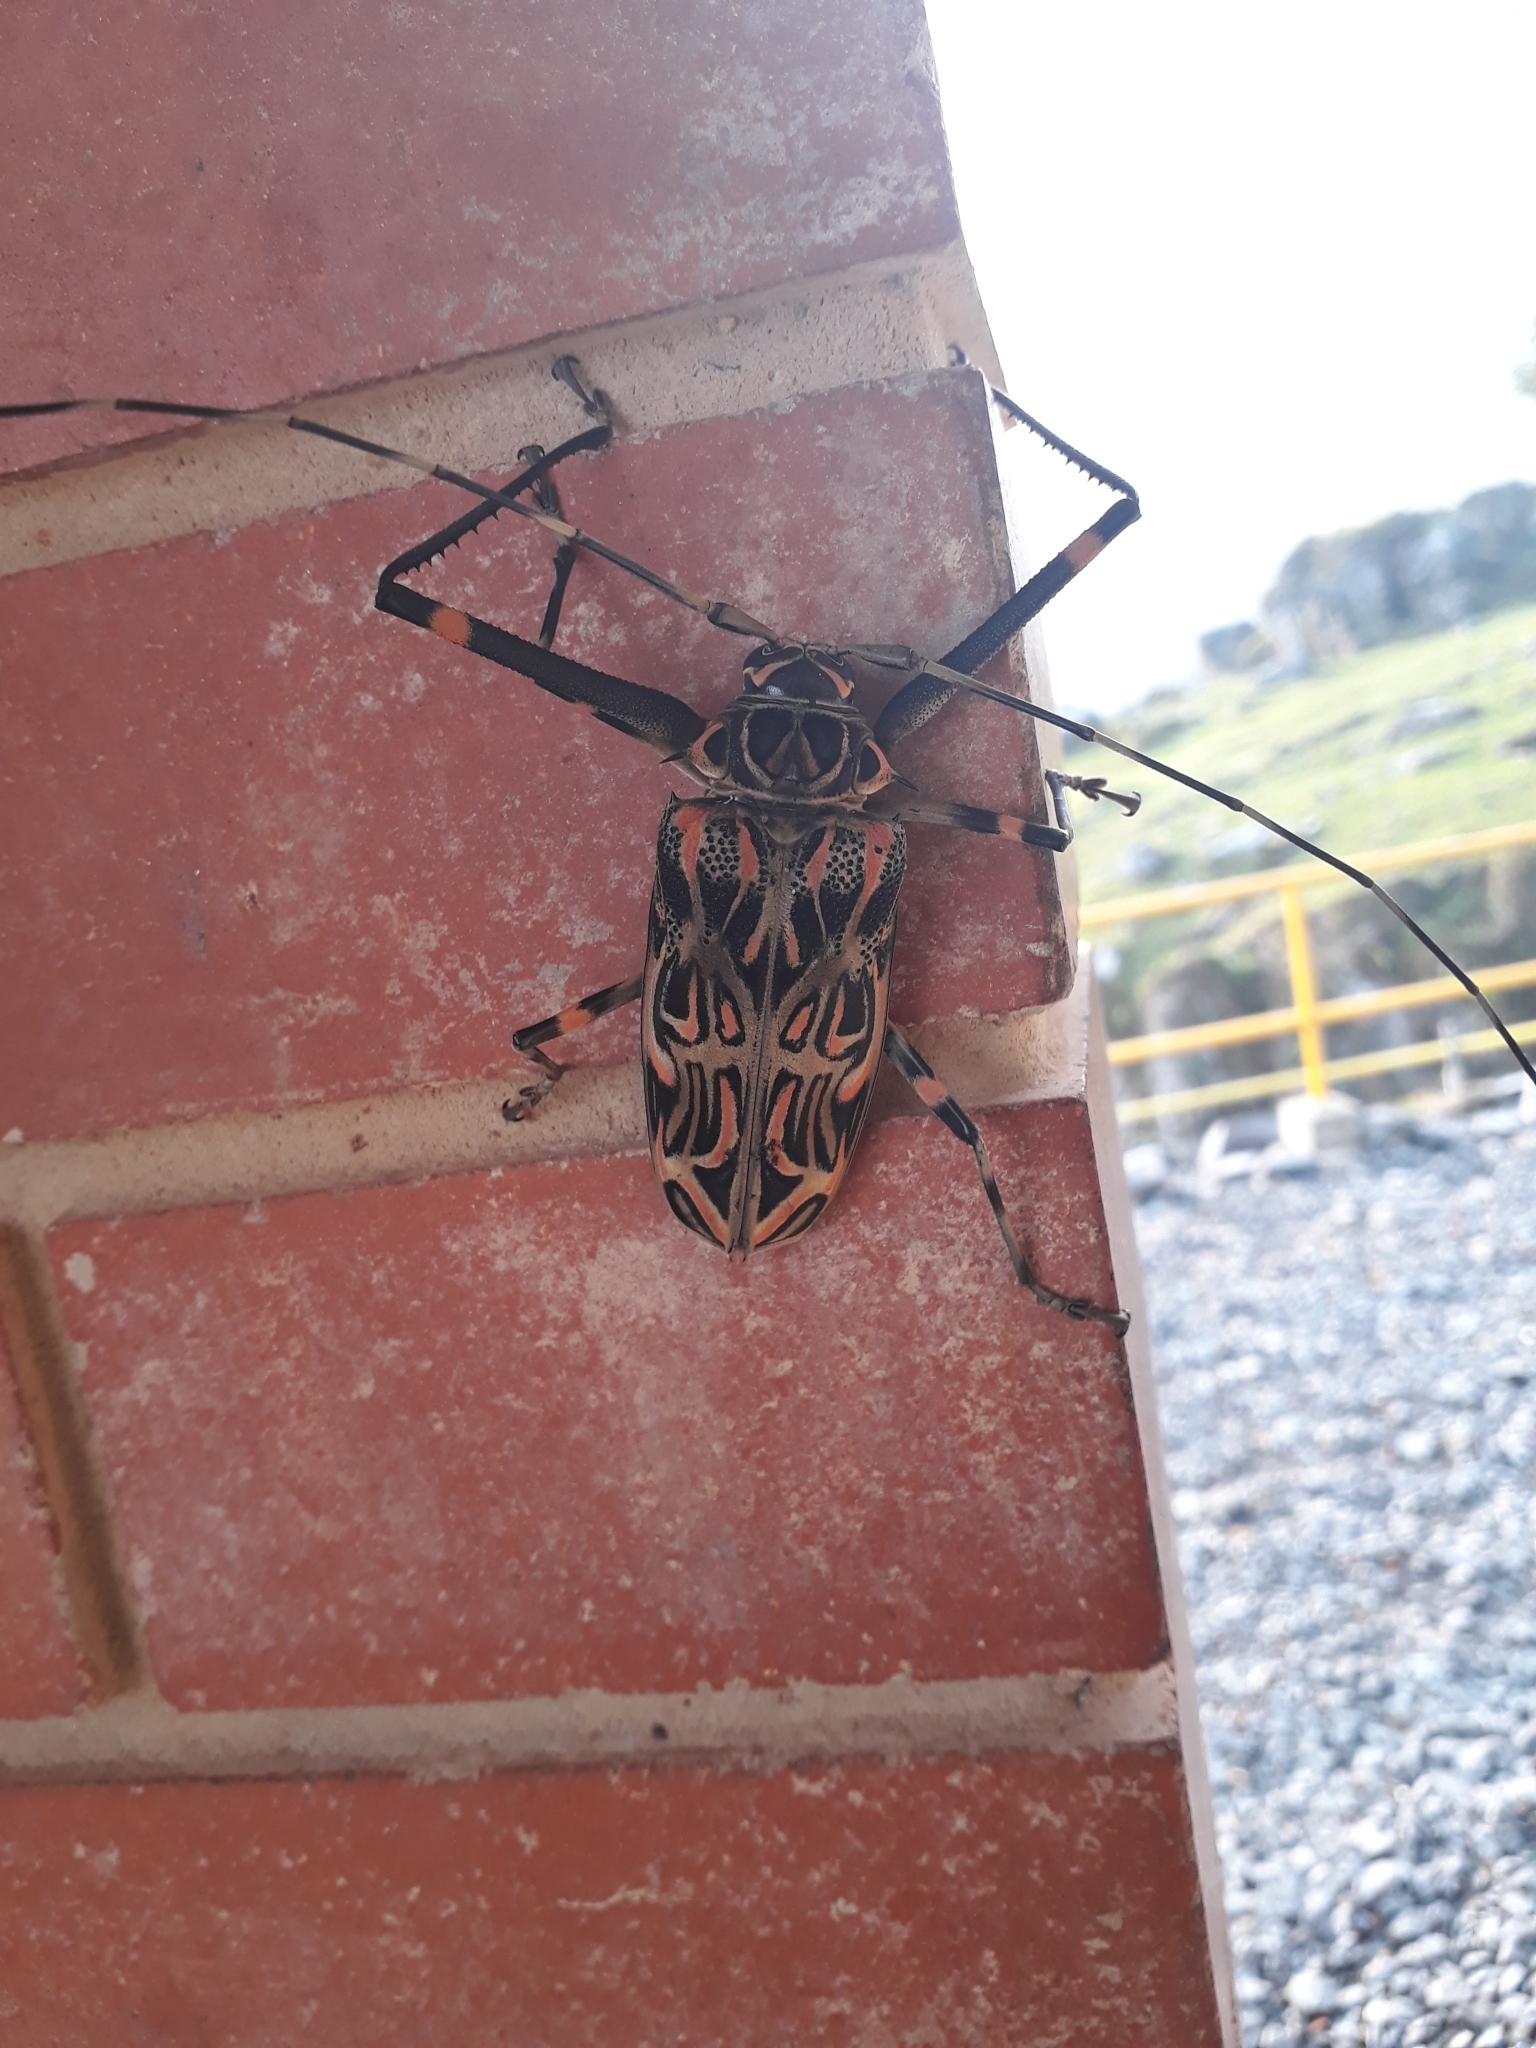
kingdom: Animalia
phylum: Arthropoda
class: Insecta
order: Coleoptera
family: Cerambycidae
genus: Acrocinus
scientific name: Acrocinus longimanus
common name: Arlequin
